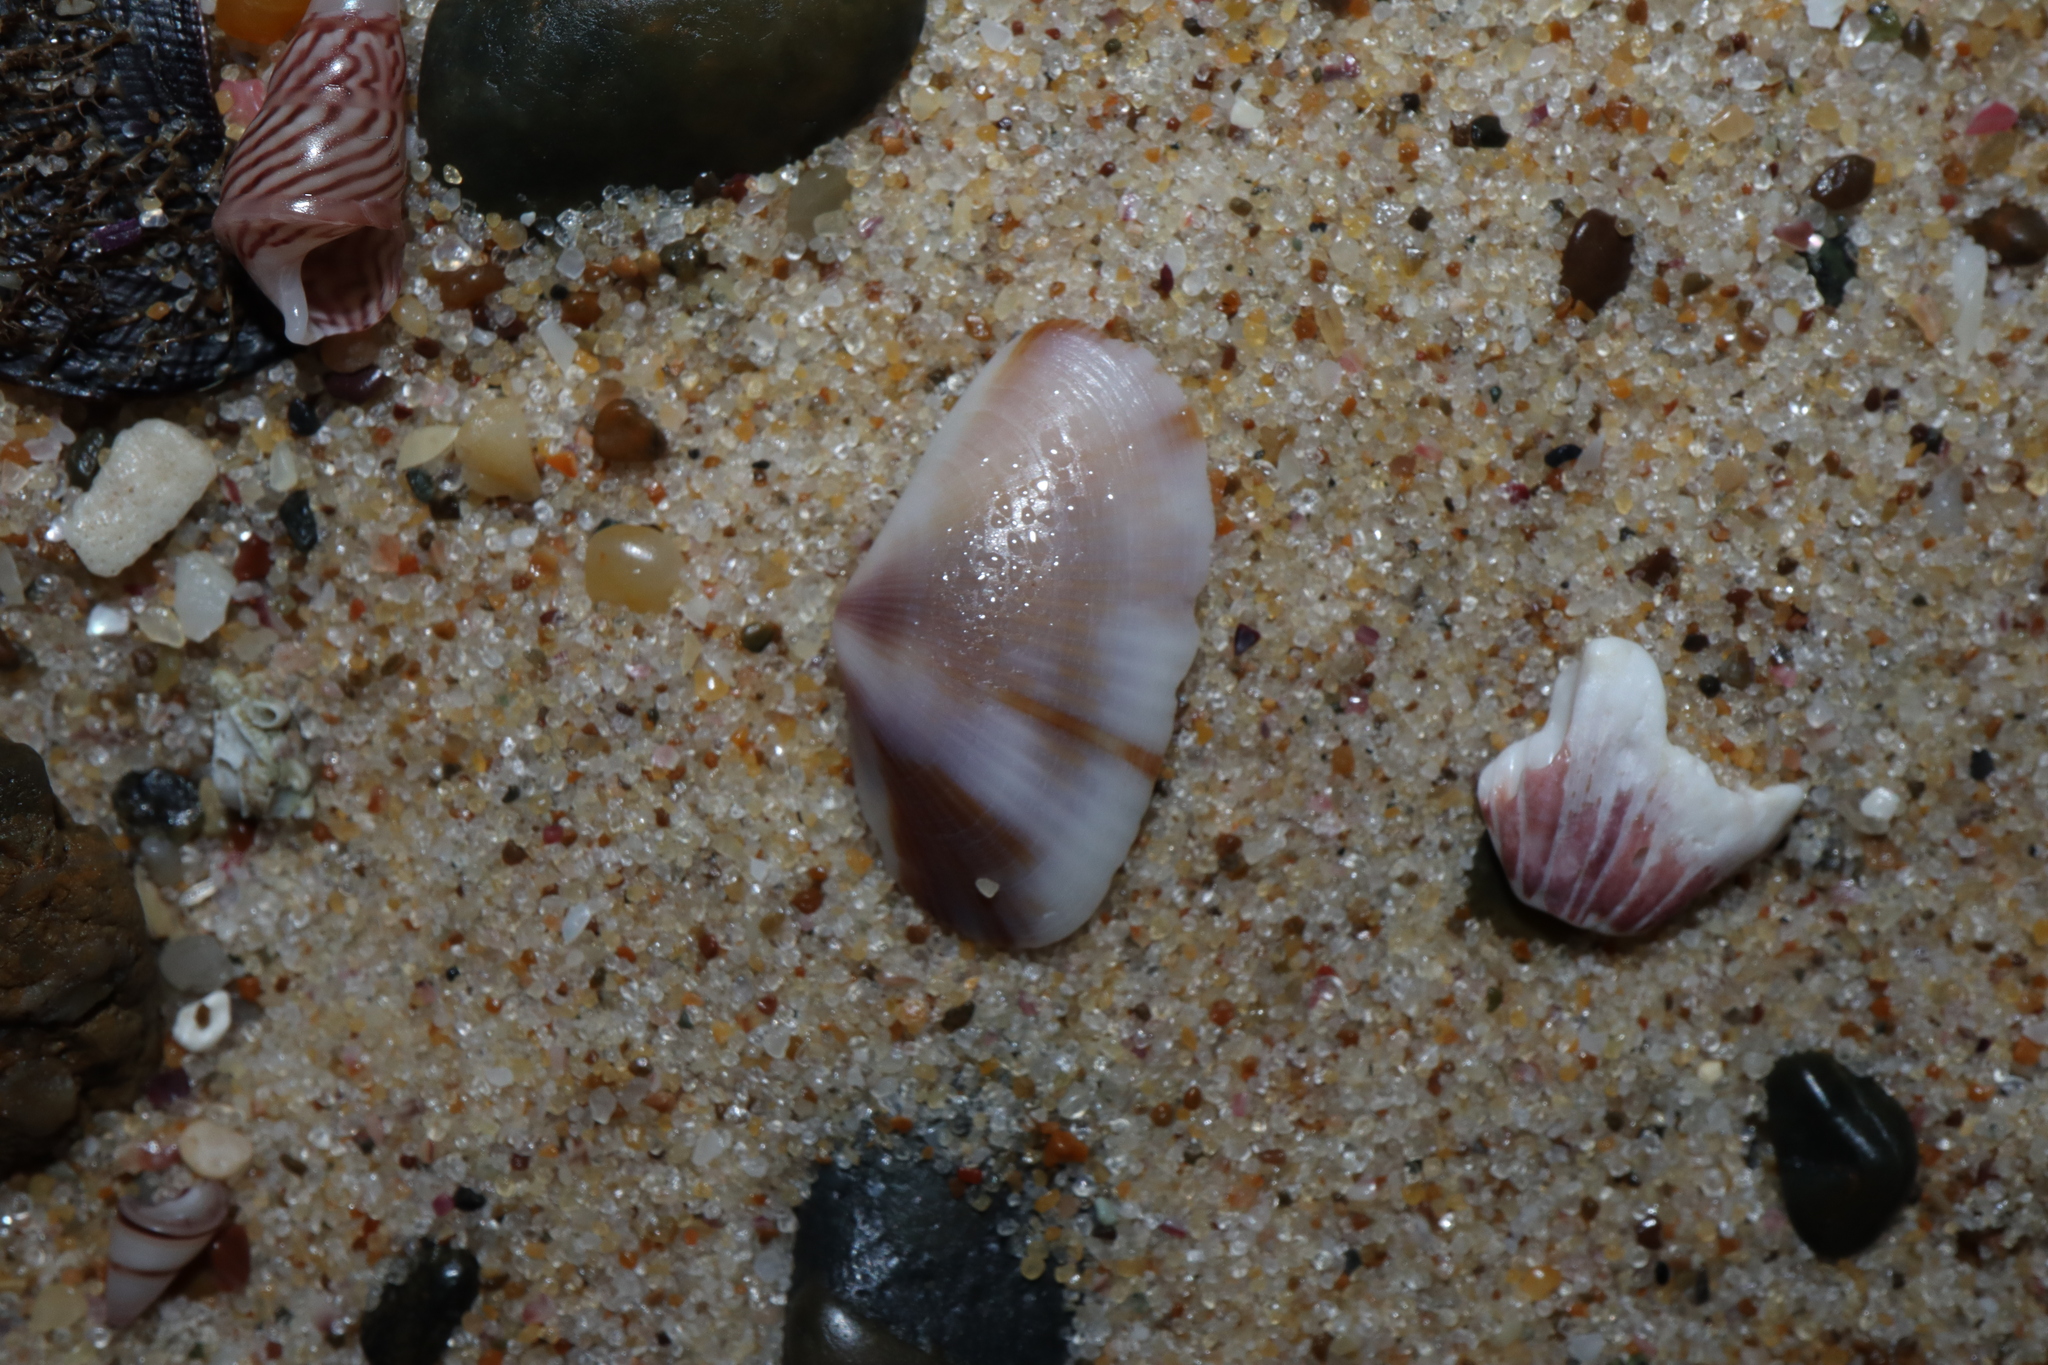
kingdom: Animalia
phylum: Mollusca
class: Bivalvia
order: Venerida
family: Hemidonacidae
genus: Hemidonax
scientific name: Hemidonax dactylus
